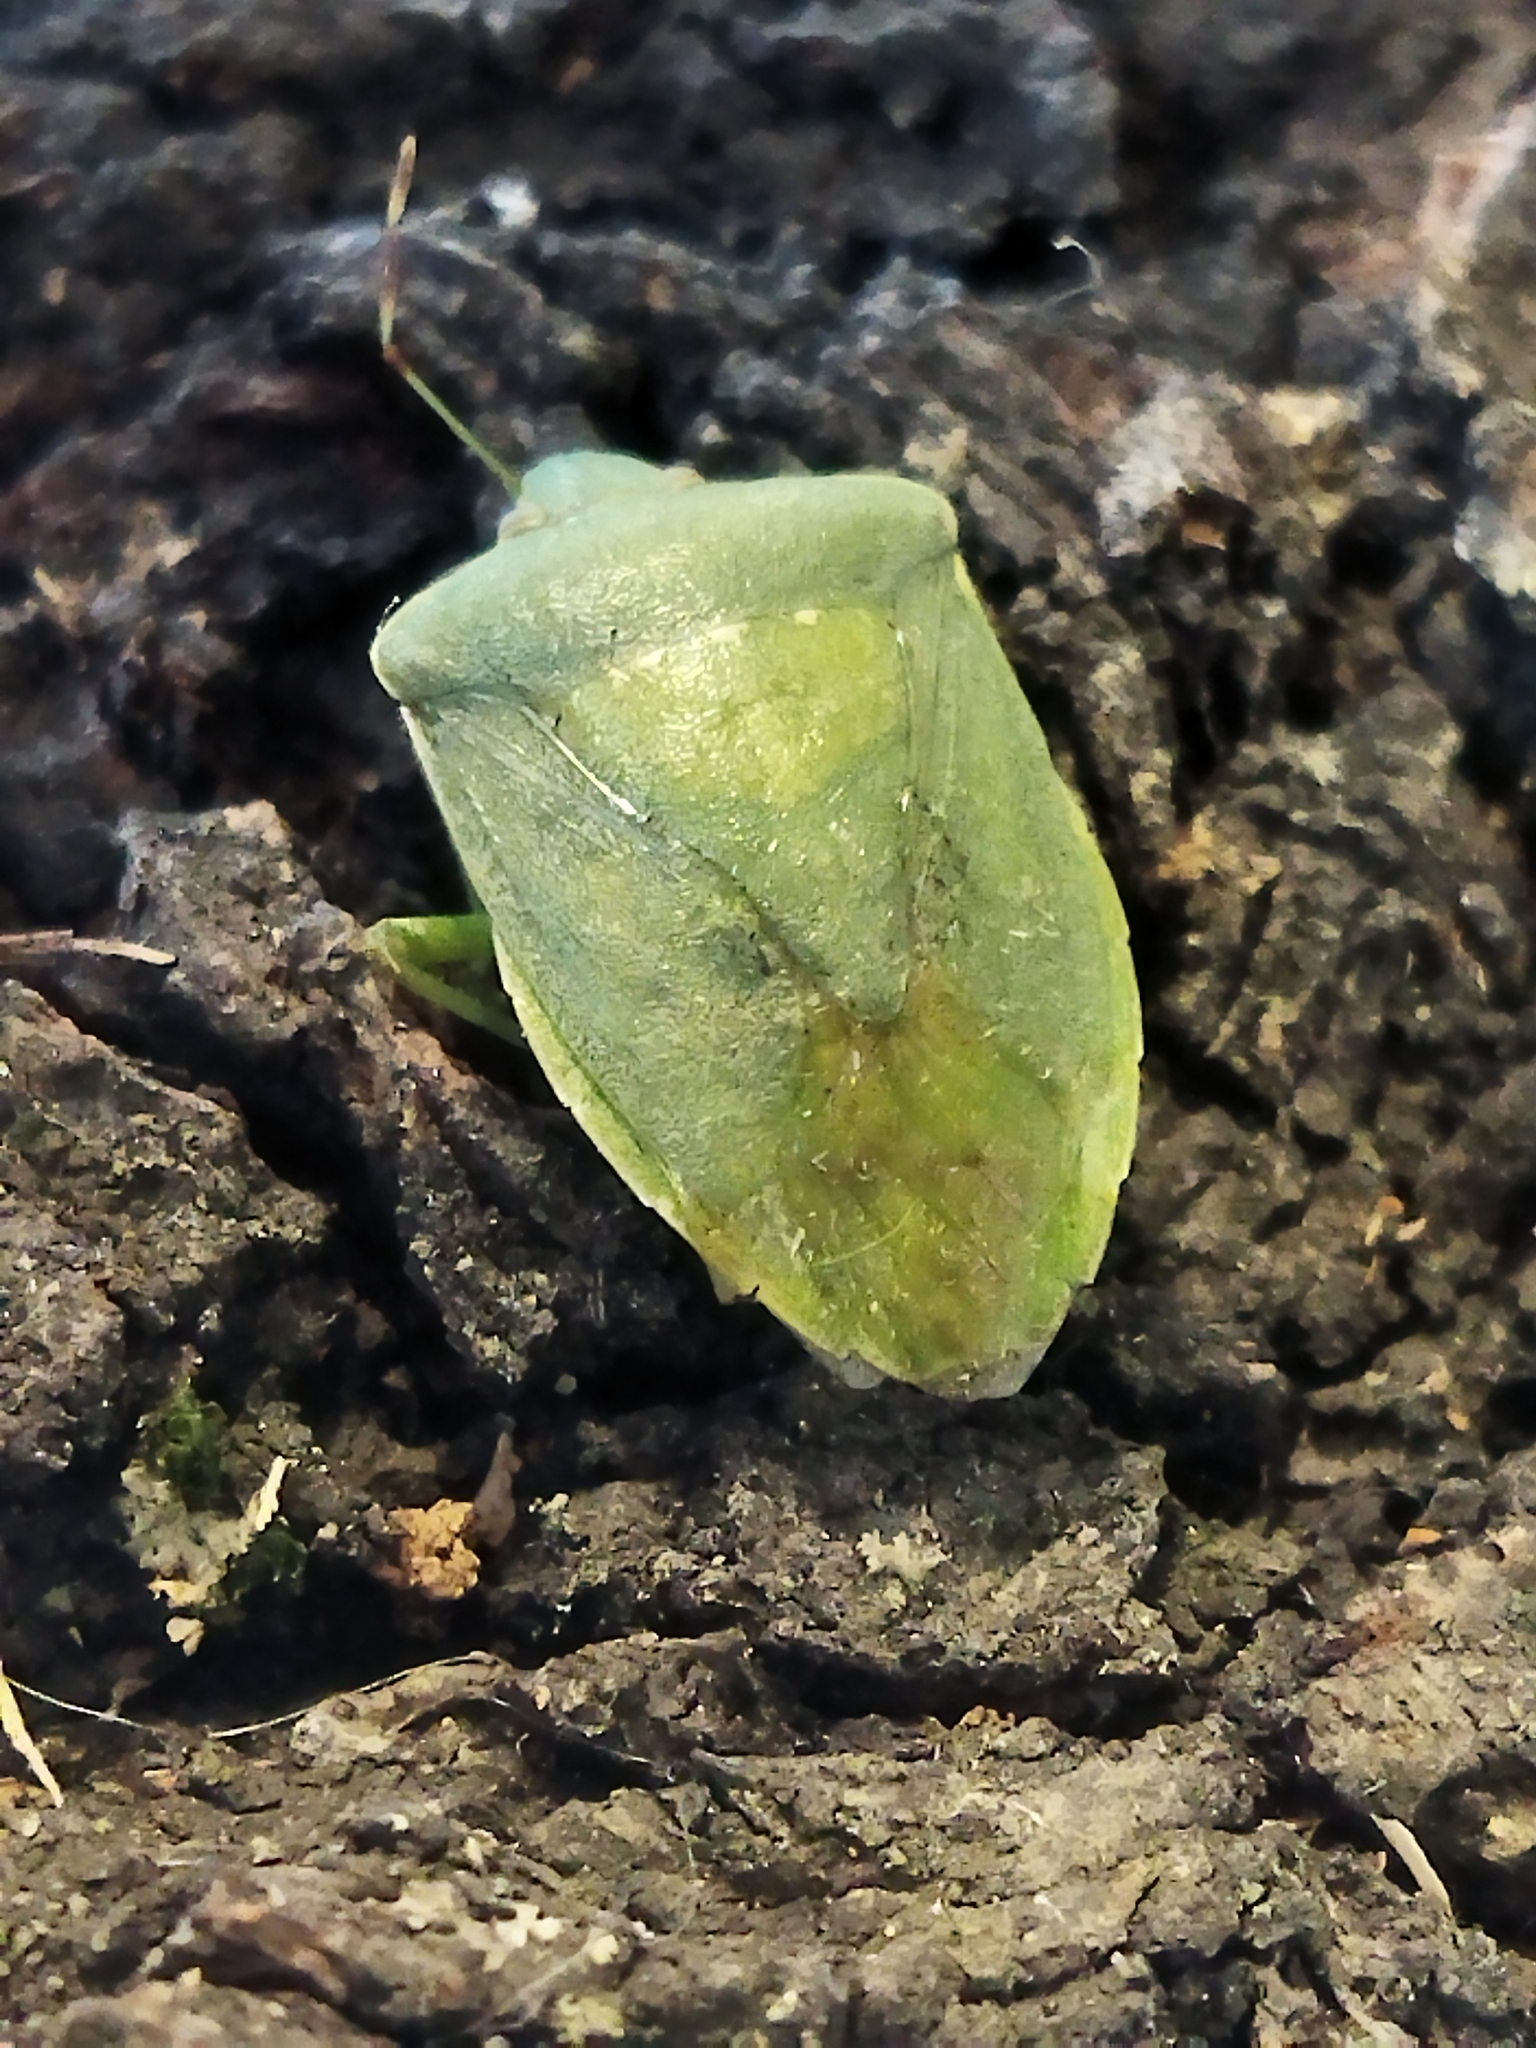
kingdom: Animalia
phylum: Arthropoda
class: Insecta
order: Hemiptera
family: Pentatomidae
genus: Nezara
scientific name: Nezara viridula
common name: Southern green stink bug
